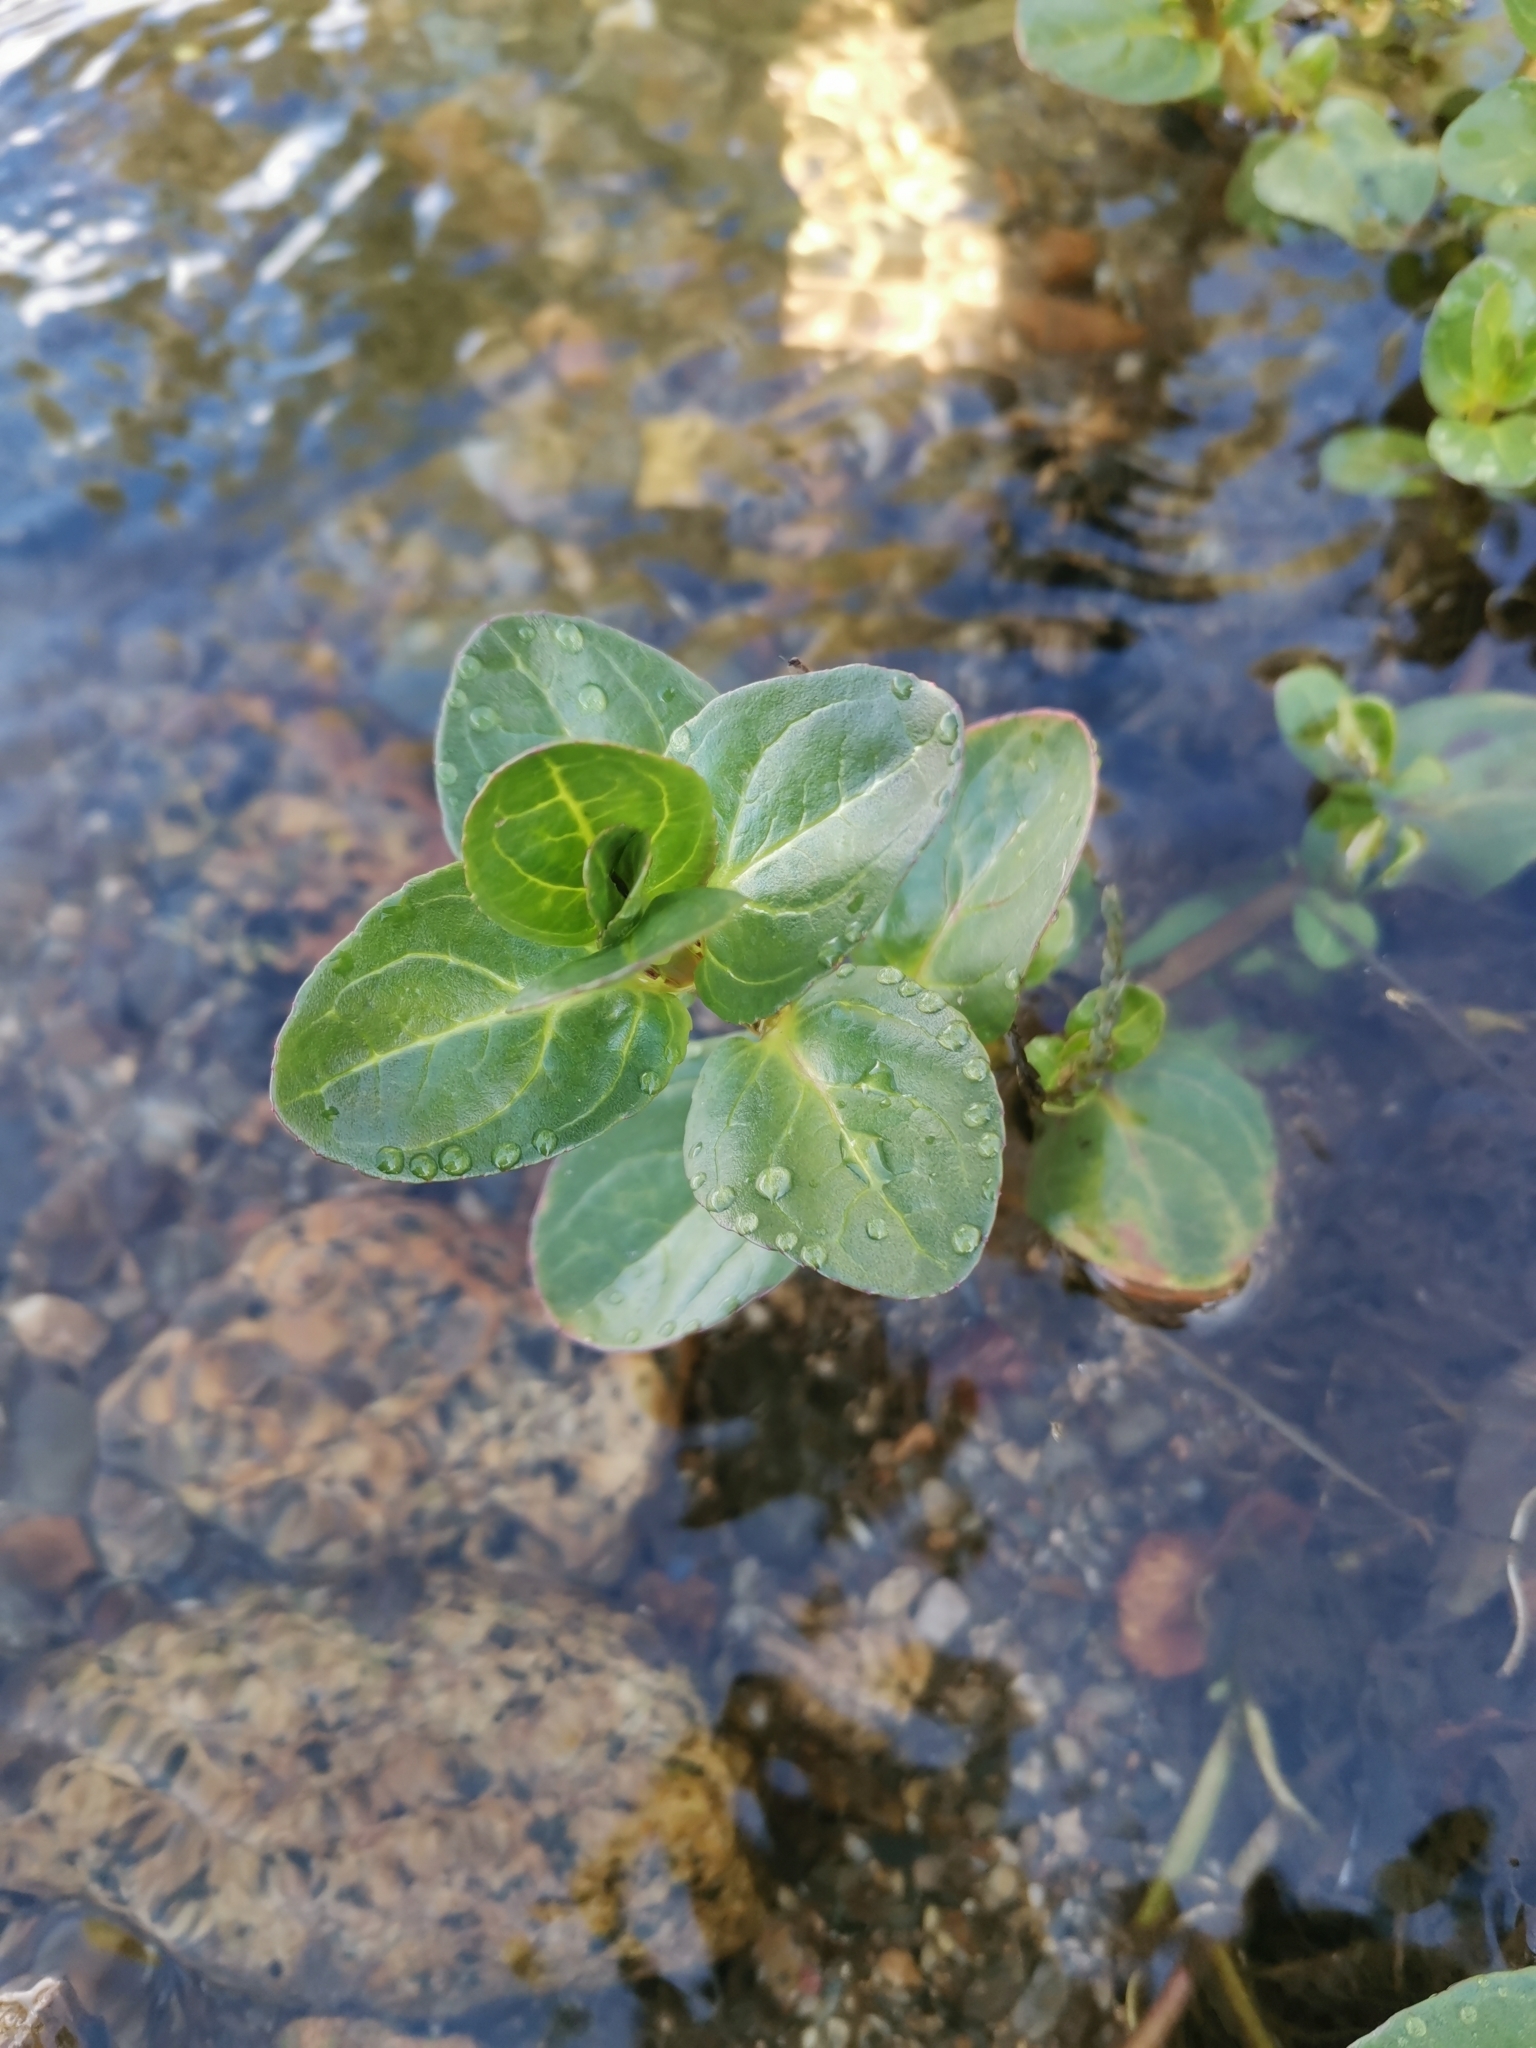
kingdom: Plantae
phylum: Tracheophyta
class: Magnoliopsida
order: Lamiales
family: Plantaginaceae
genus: Veronica
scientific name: Veronica beccabunga
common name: Brooklime
